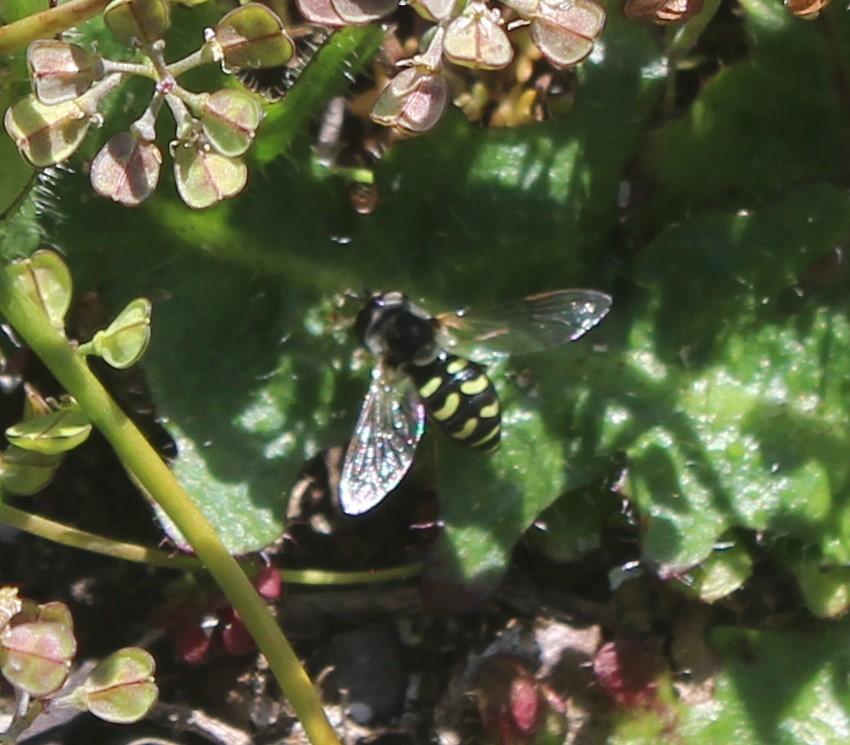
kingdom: Animalia
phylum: Arthropoda
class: Insecta
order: Diptera
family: Syrphidae
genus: Eupeodes
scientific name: Eupeodes volucris
